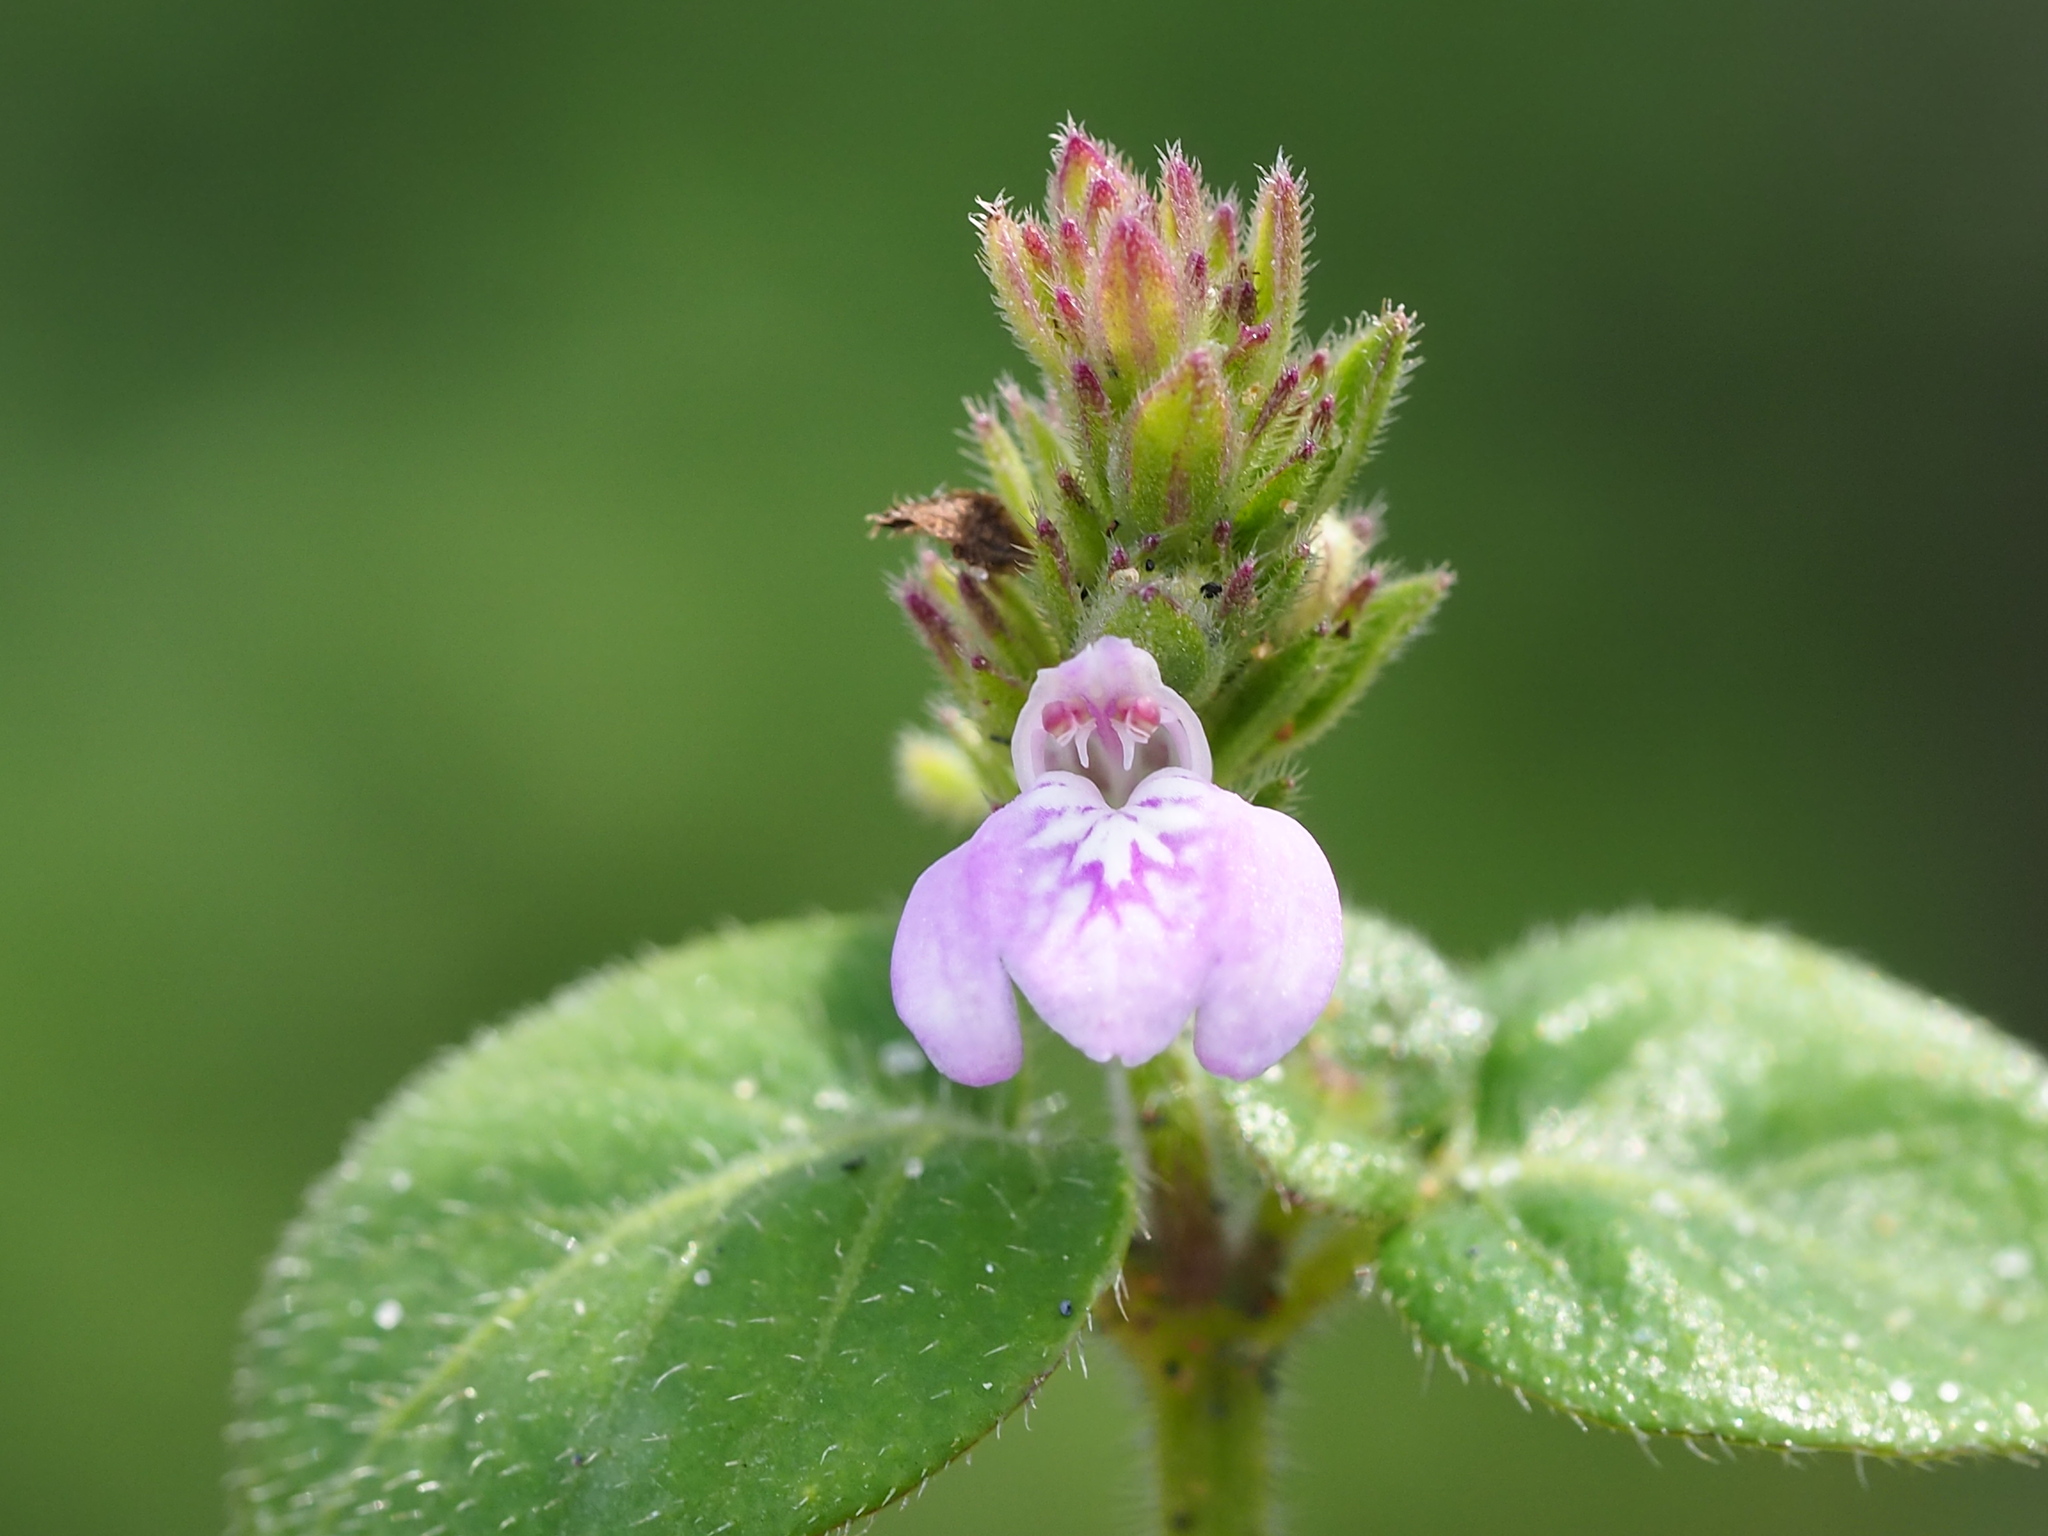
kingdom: Plantae
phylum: Tracheophyta
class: Magnoliopsida
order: Lamiales
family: Acanthaceae
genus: Rostellularia
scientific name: Rostellularia procumbens
